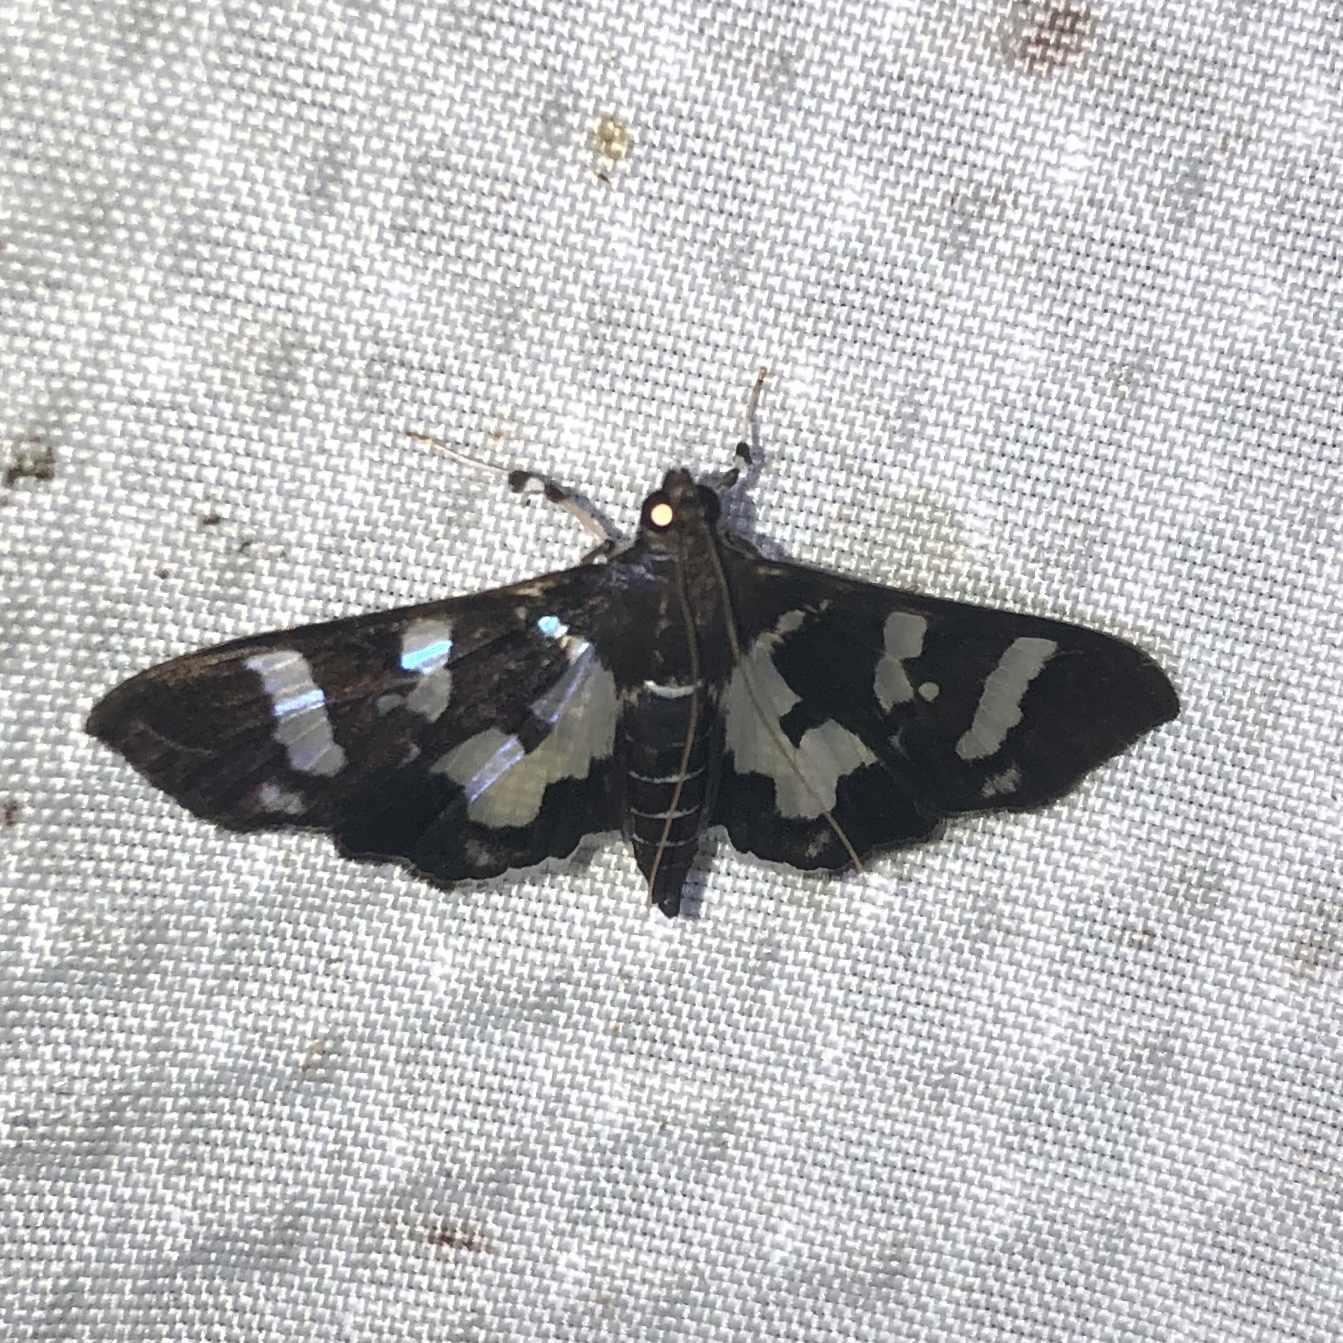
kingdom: Animalia
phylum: Arthropoda
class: Insecta
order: Lepidoptera
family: Crambidae
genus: Desmia
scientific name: Desmia bajulalis
